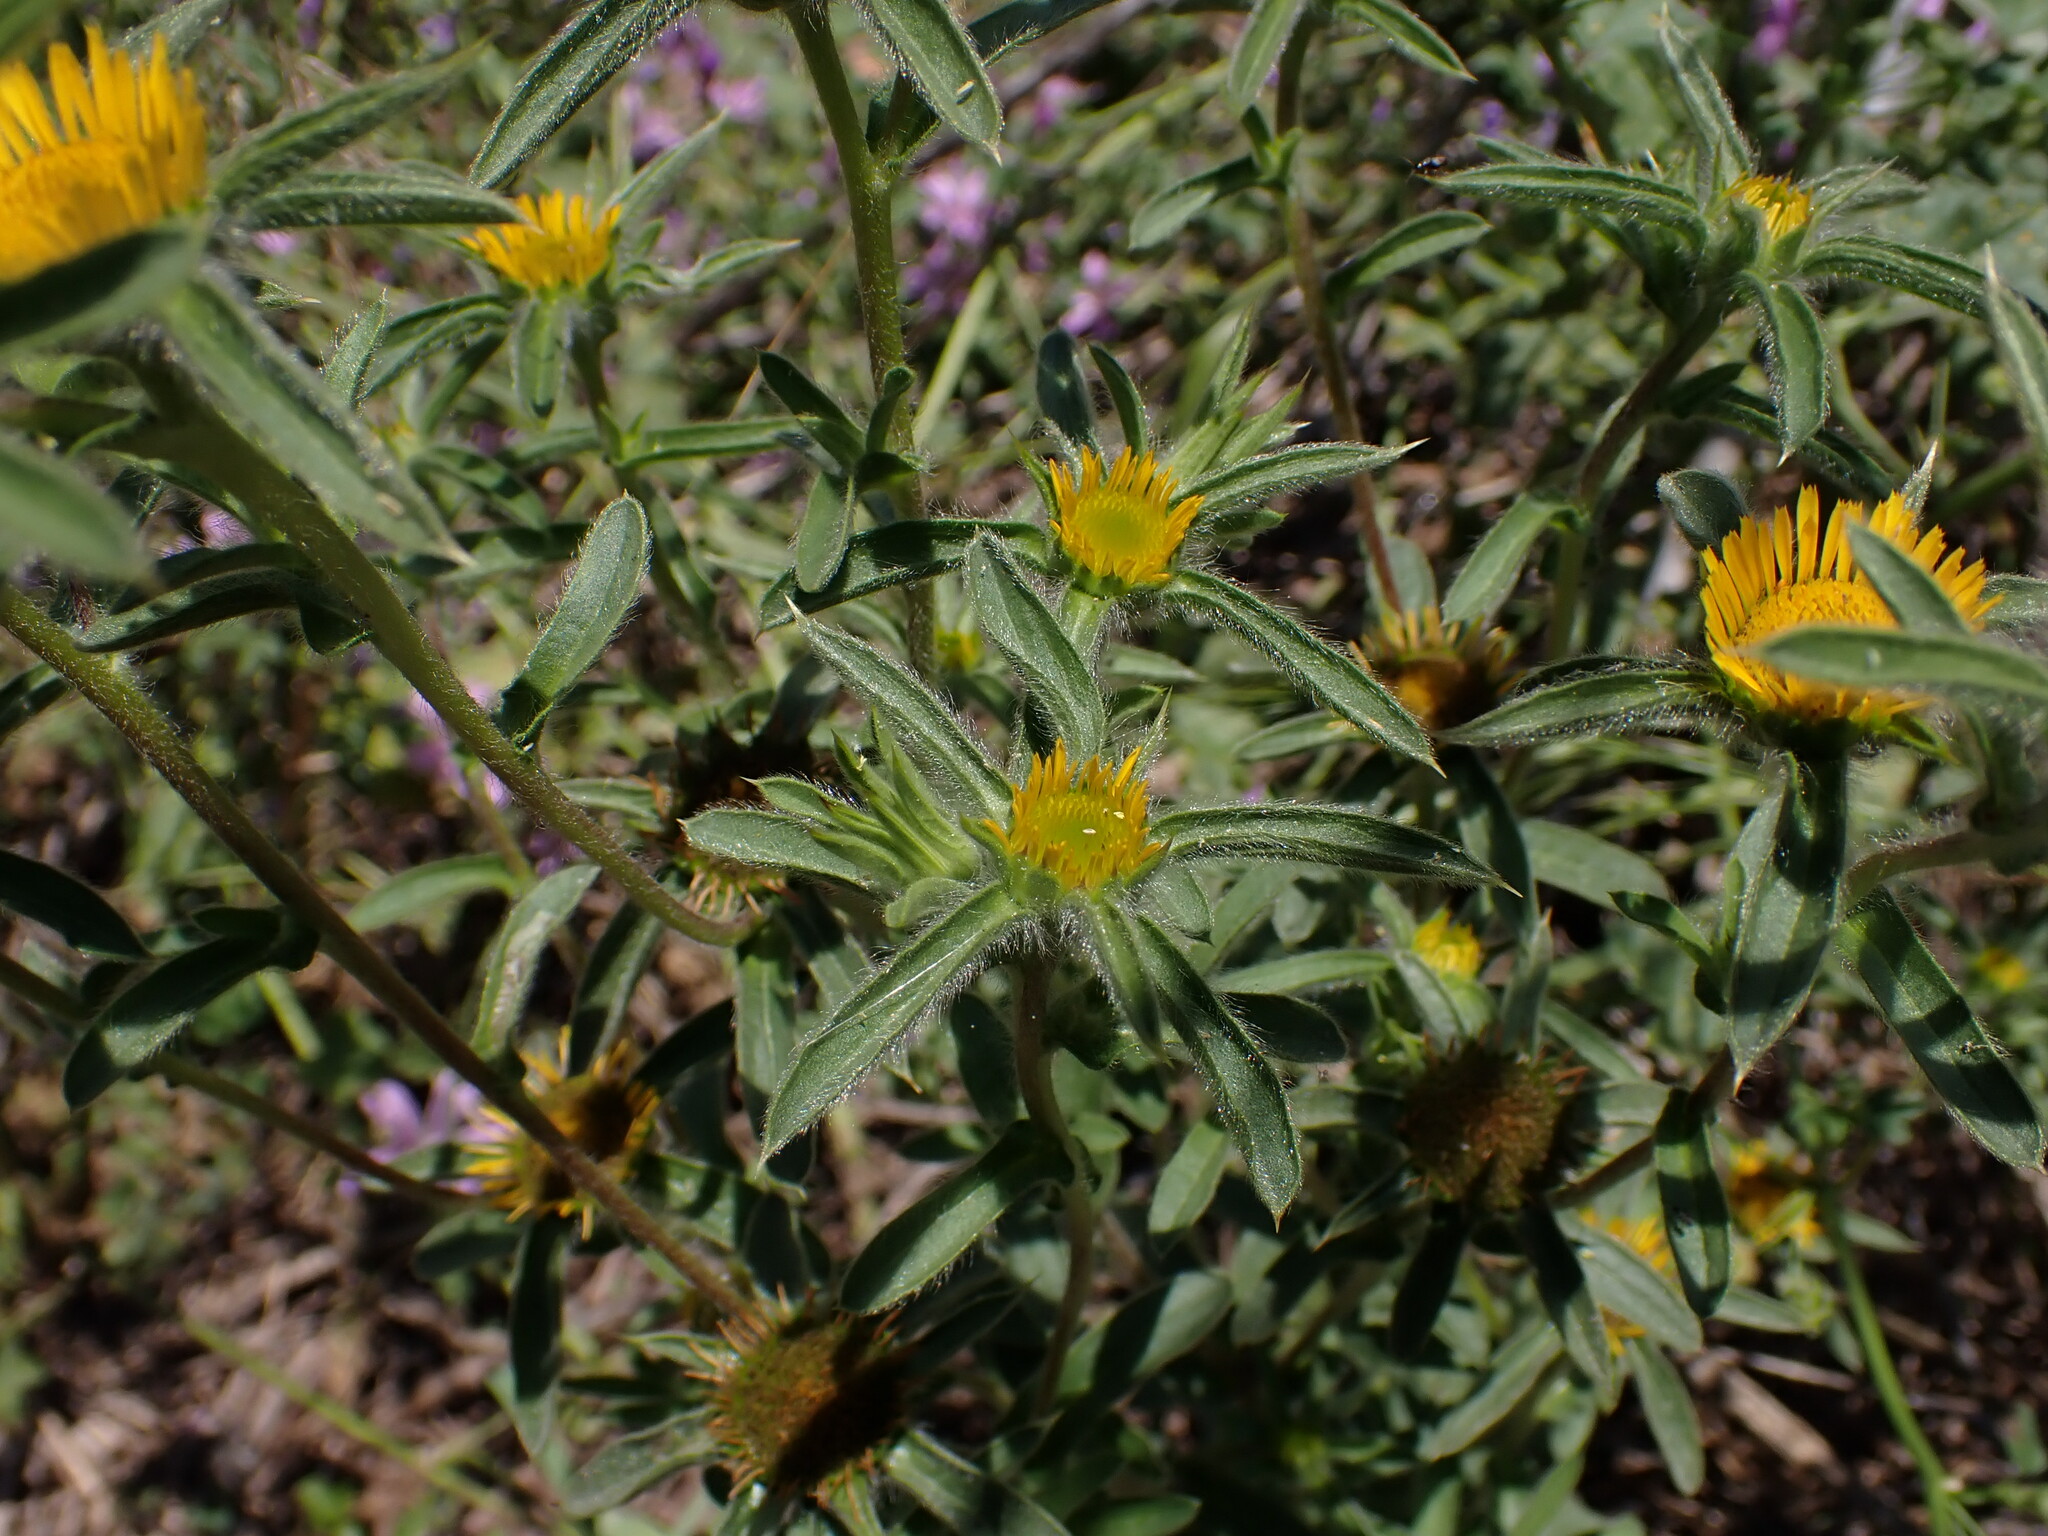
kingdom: Plantae
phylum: Tracheophyta
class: Magnoliopsida
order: Asterales
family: Asteraceae
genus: Pallenis
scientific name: Pallenis spinosa
